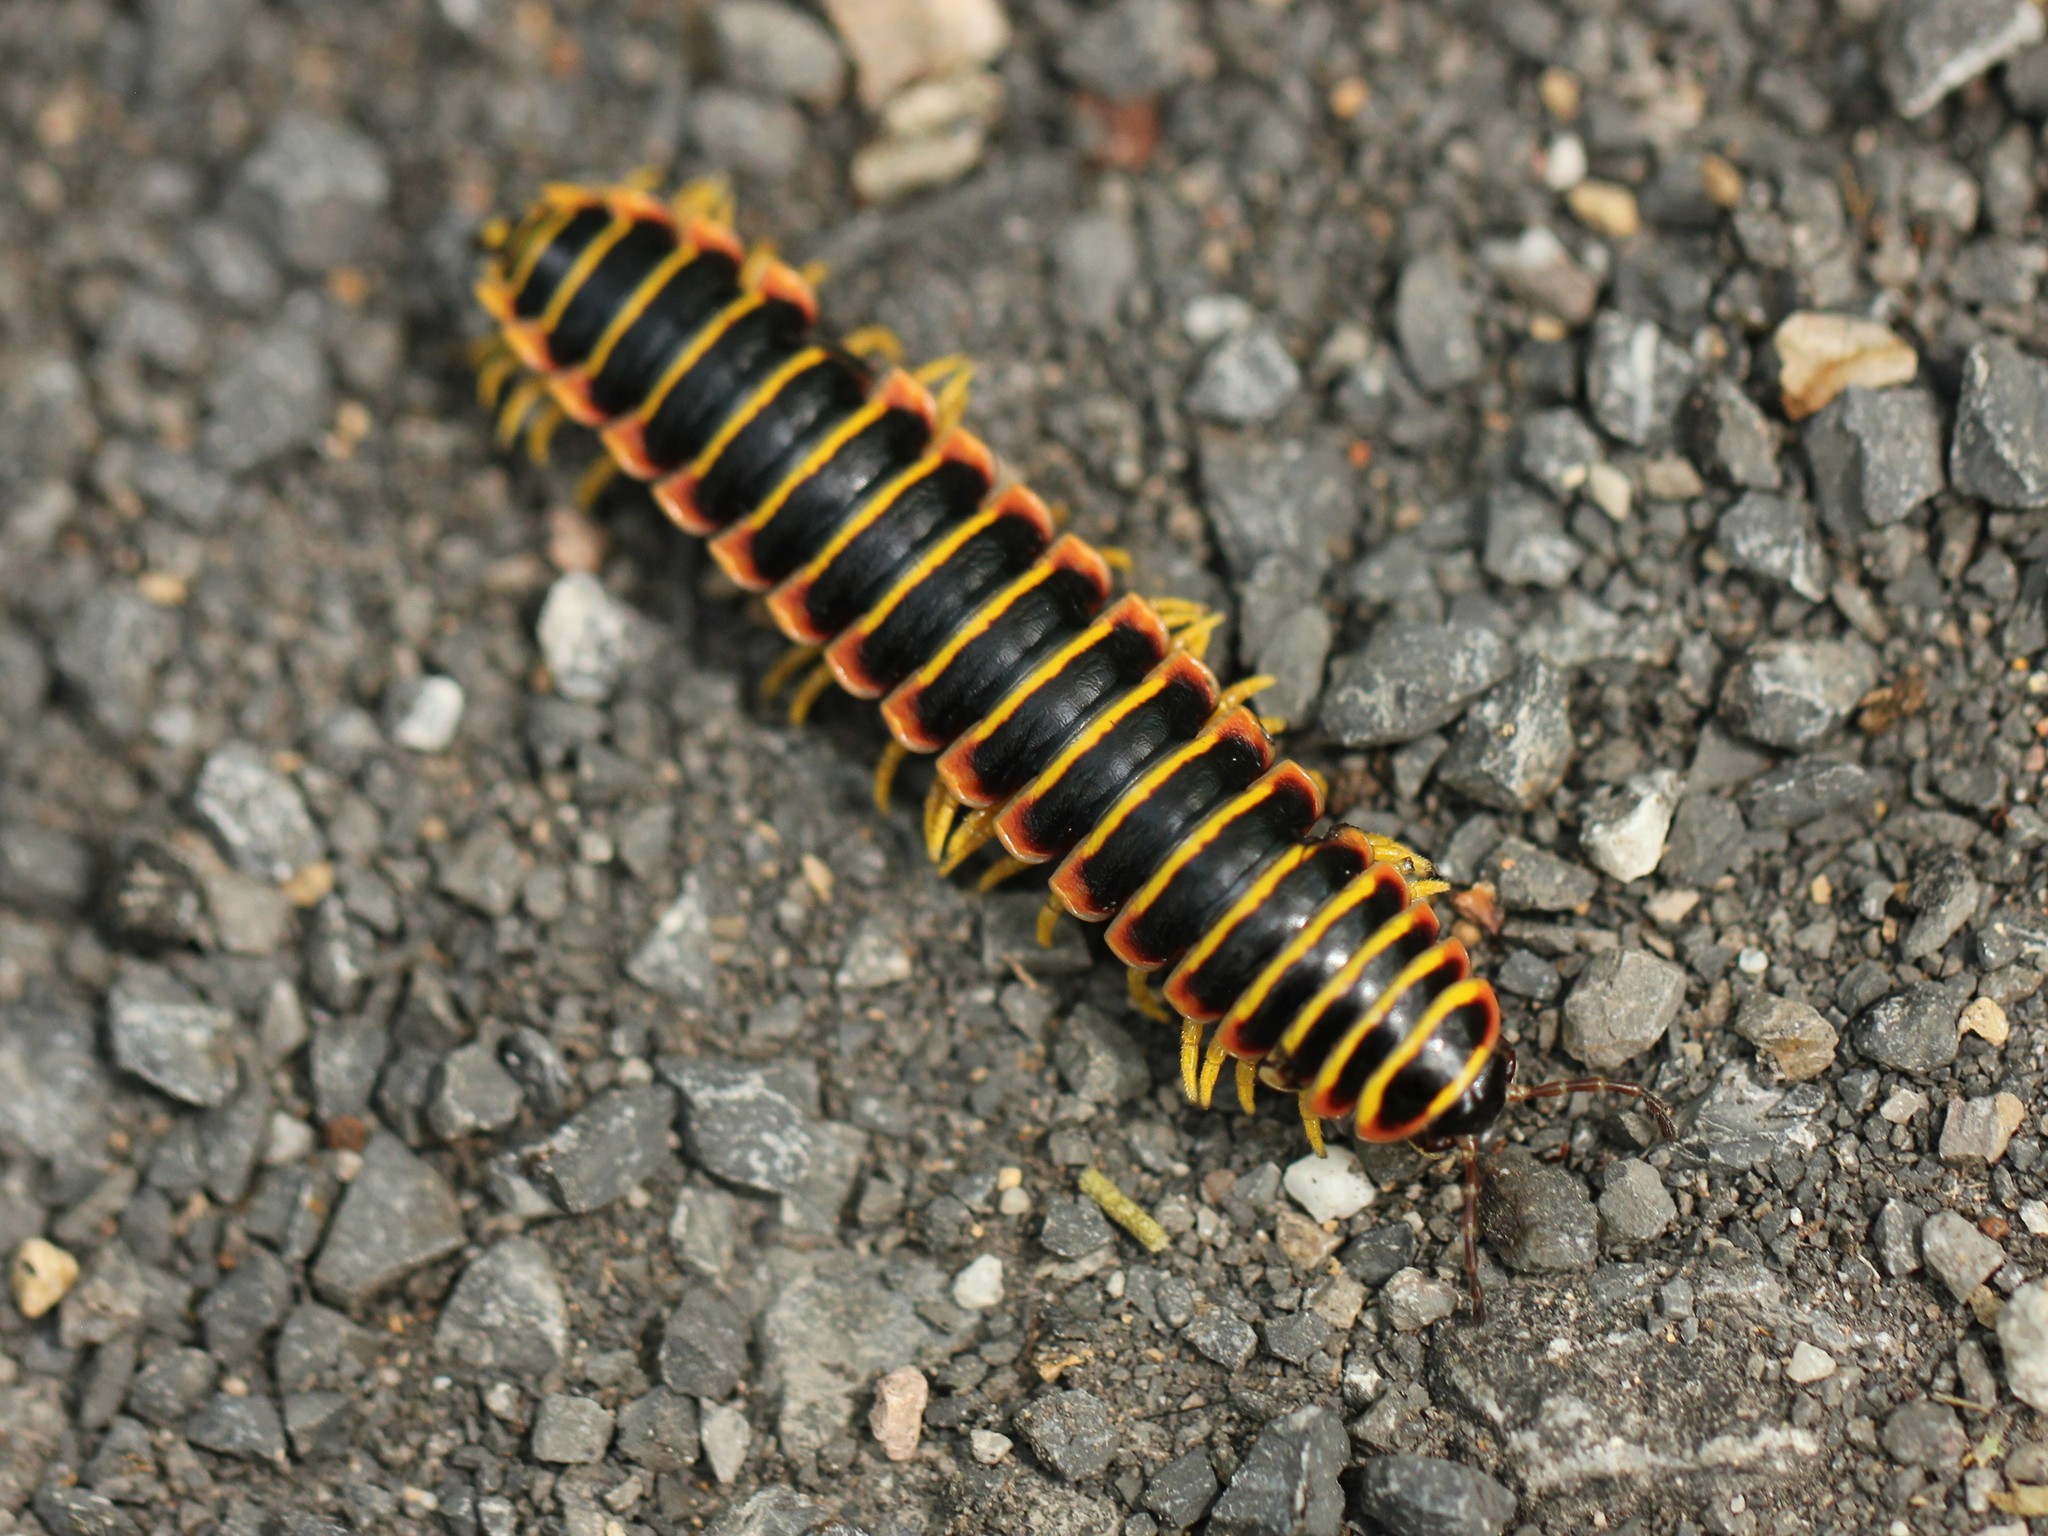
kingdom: Animalia
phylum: Arthropoda
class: Diplopoda
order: Polydesmida
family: Xystodesmidae
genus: Apheloria
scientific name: Apheloria virginiensis
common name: Black-and-gold flat millipede
